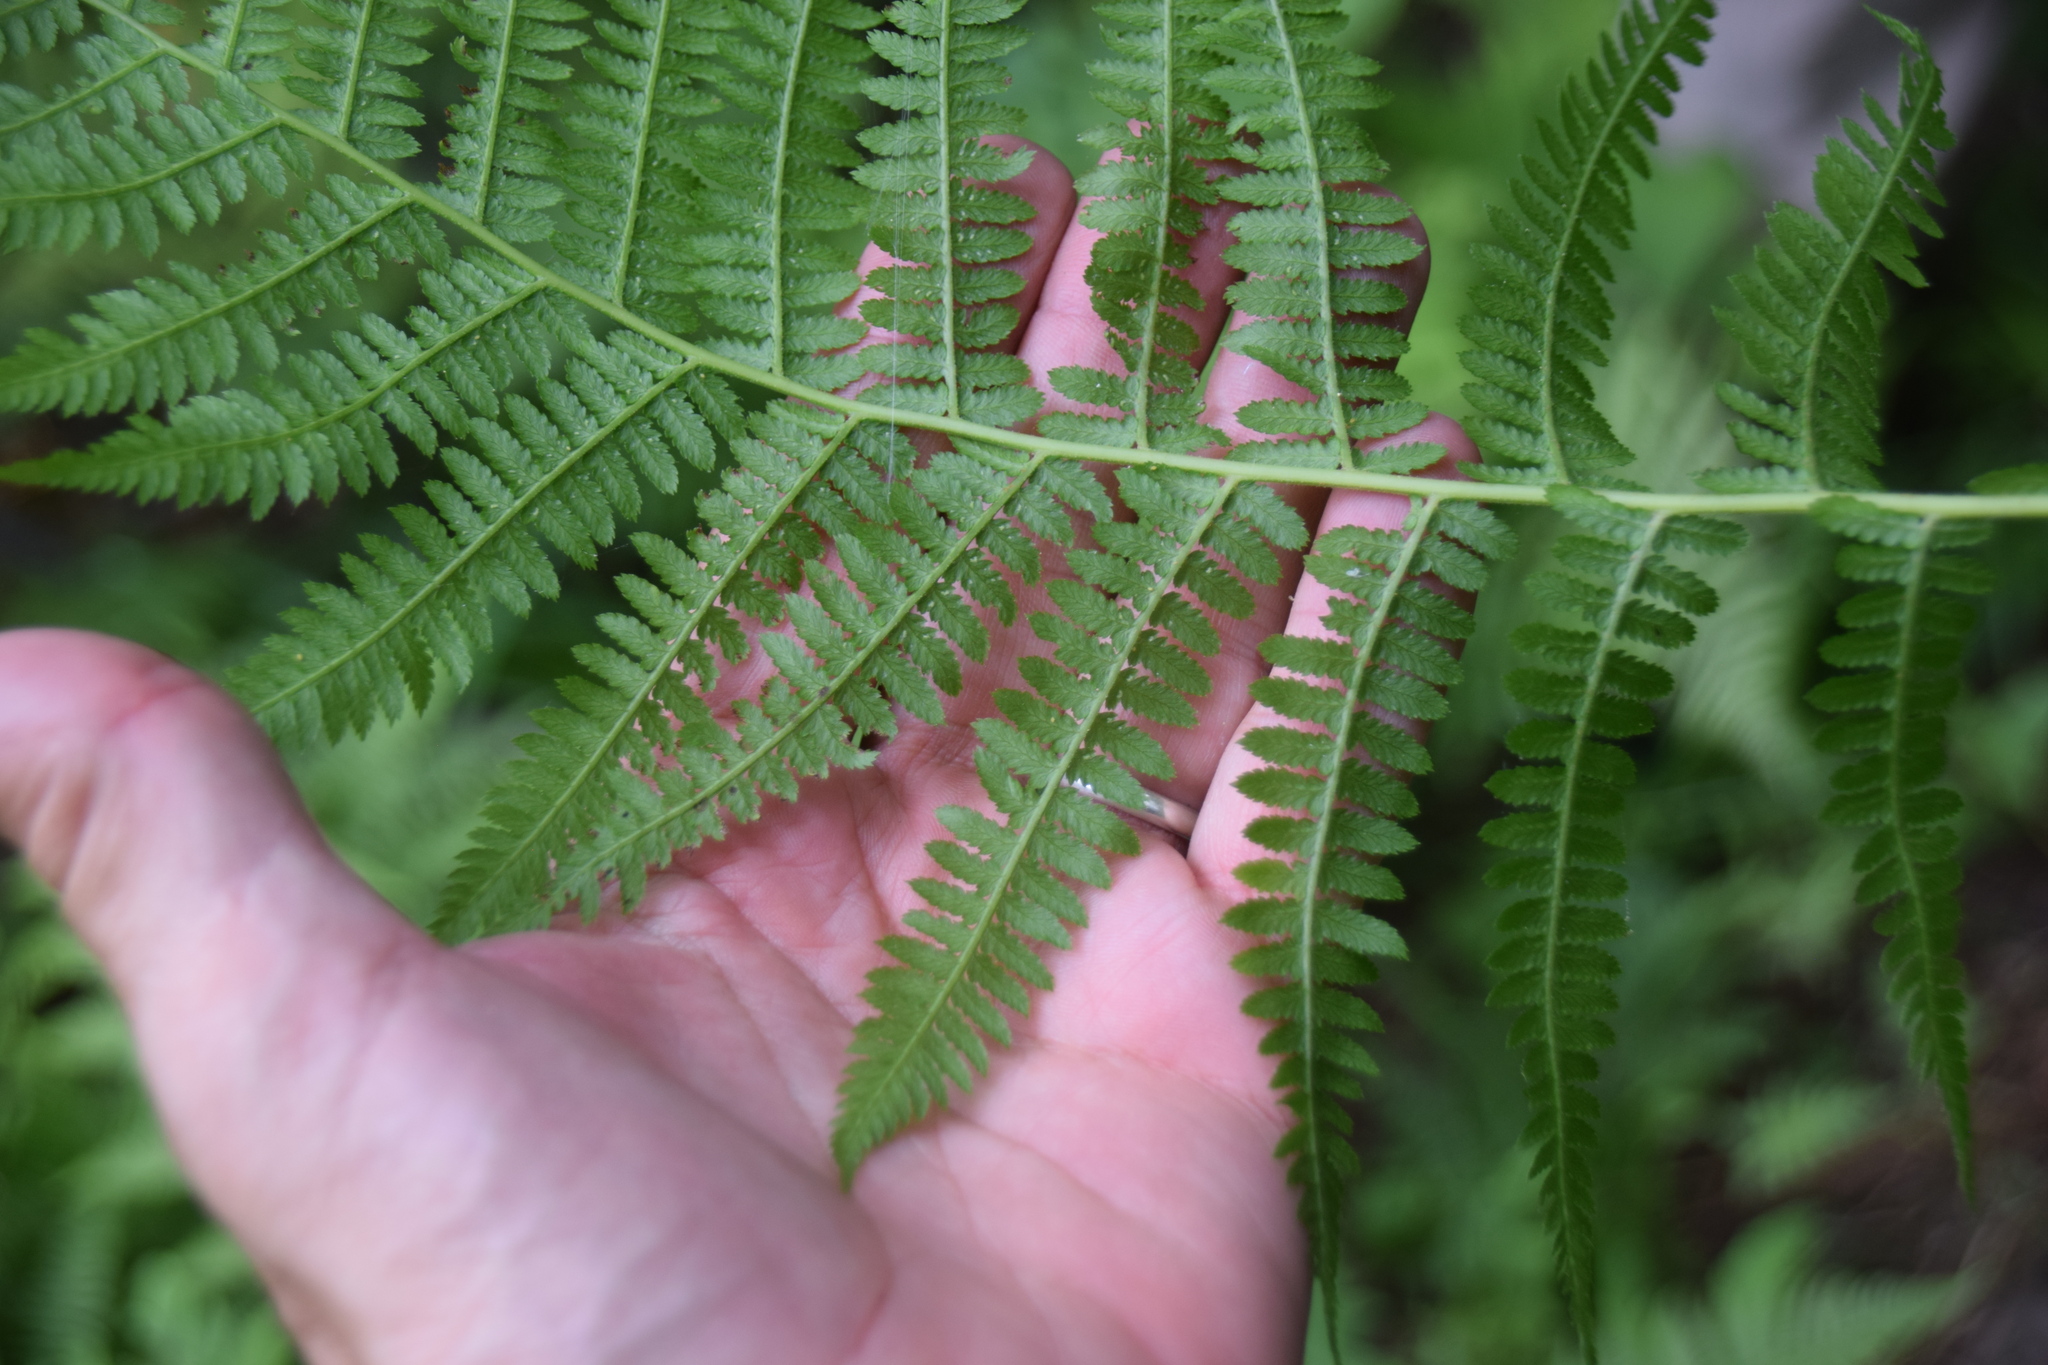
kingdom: Plantae
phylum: Tracheophyta
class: Polypodiopsida
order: Polypodiales
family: Athyriaceae
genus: Athyrium
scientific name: Athyrium angustum
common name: Northern lady fern
